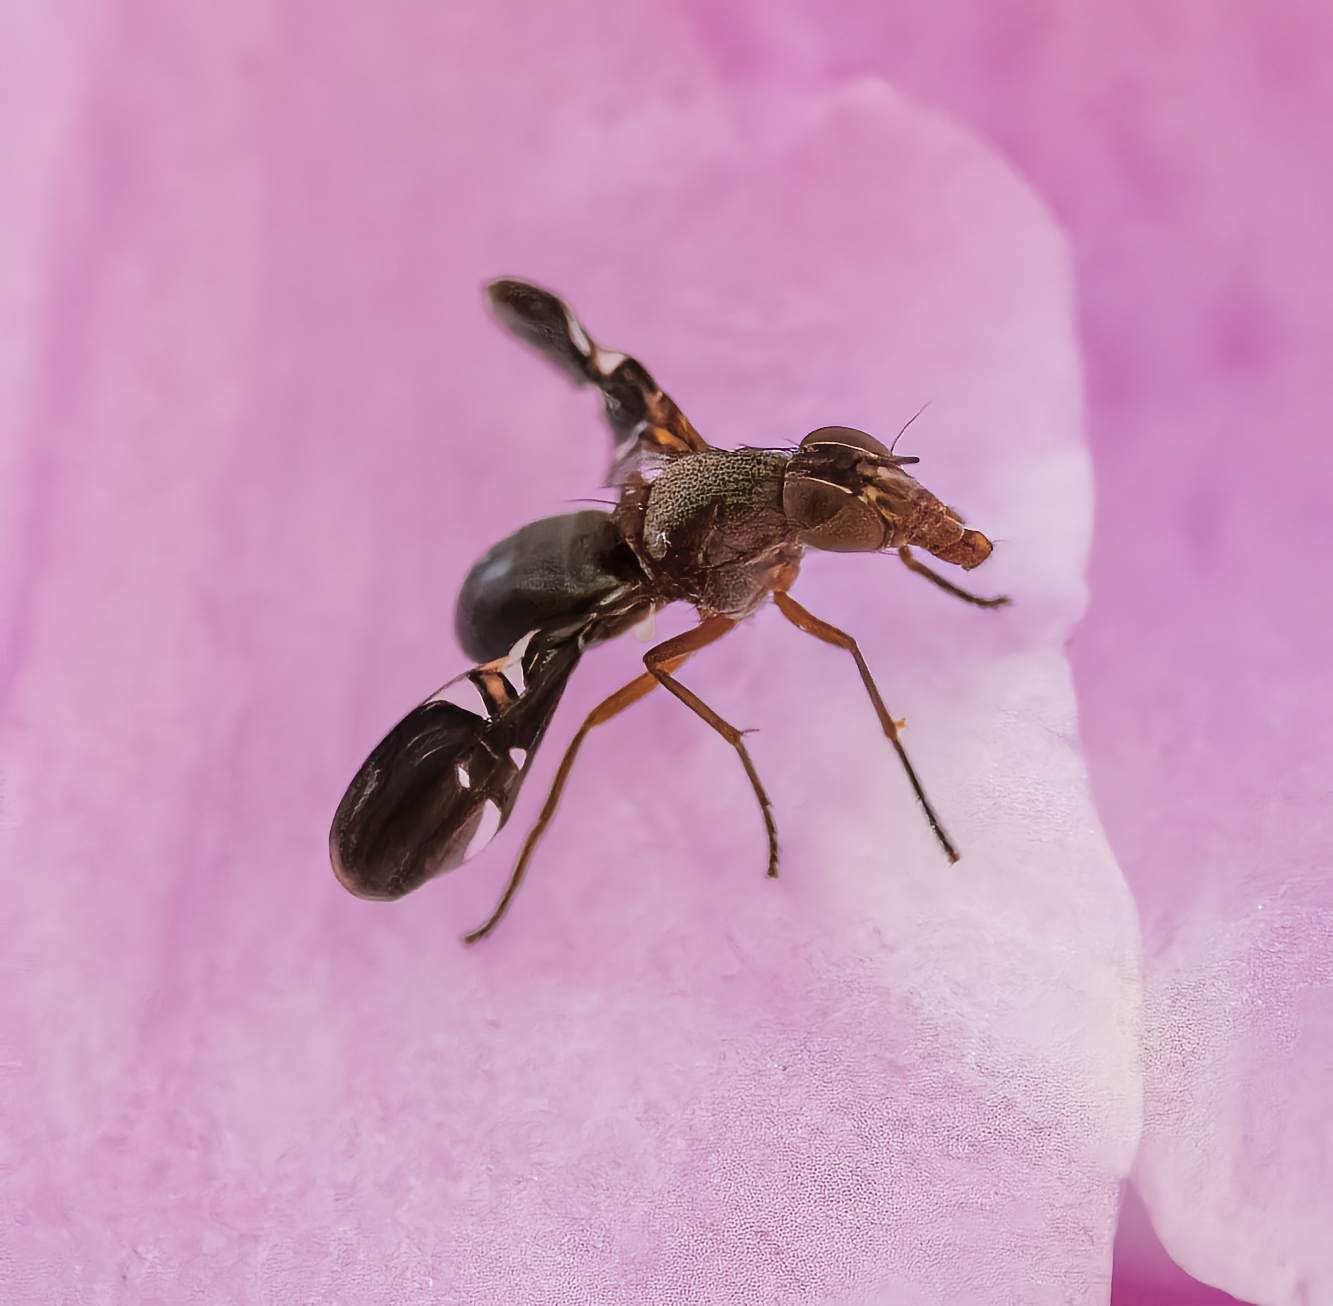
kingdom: Animalia
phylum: Arthropoda
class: Insecta
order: Diptera
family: Ulidiidae
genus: Delphinia
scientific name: Delphinia picta
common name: Common picture-winged fly
